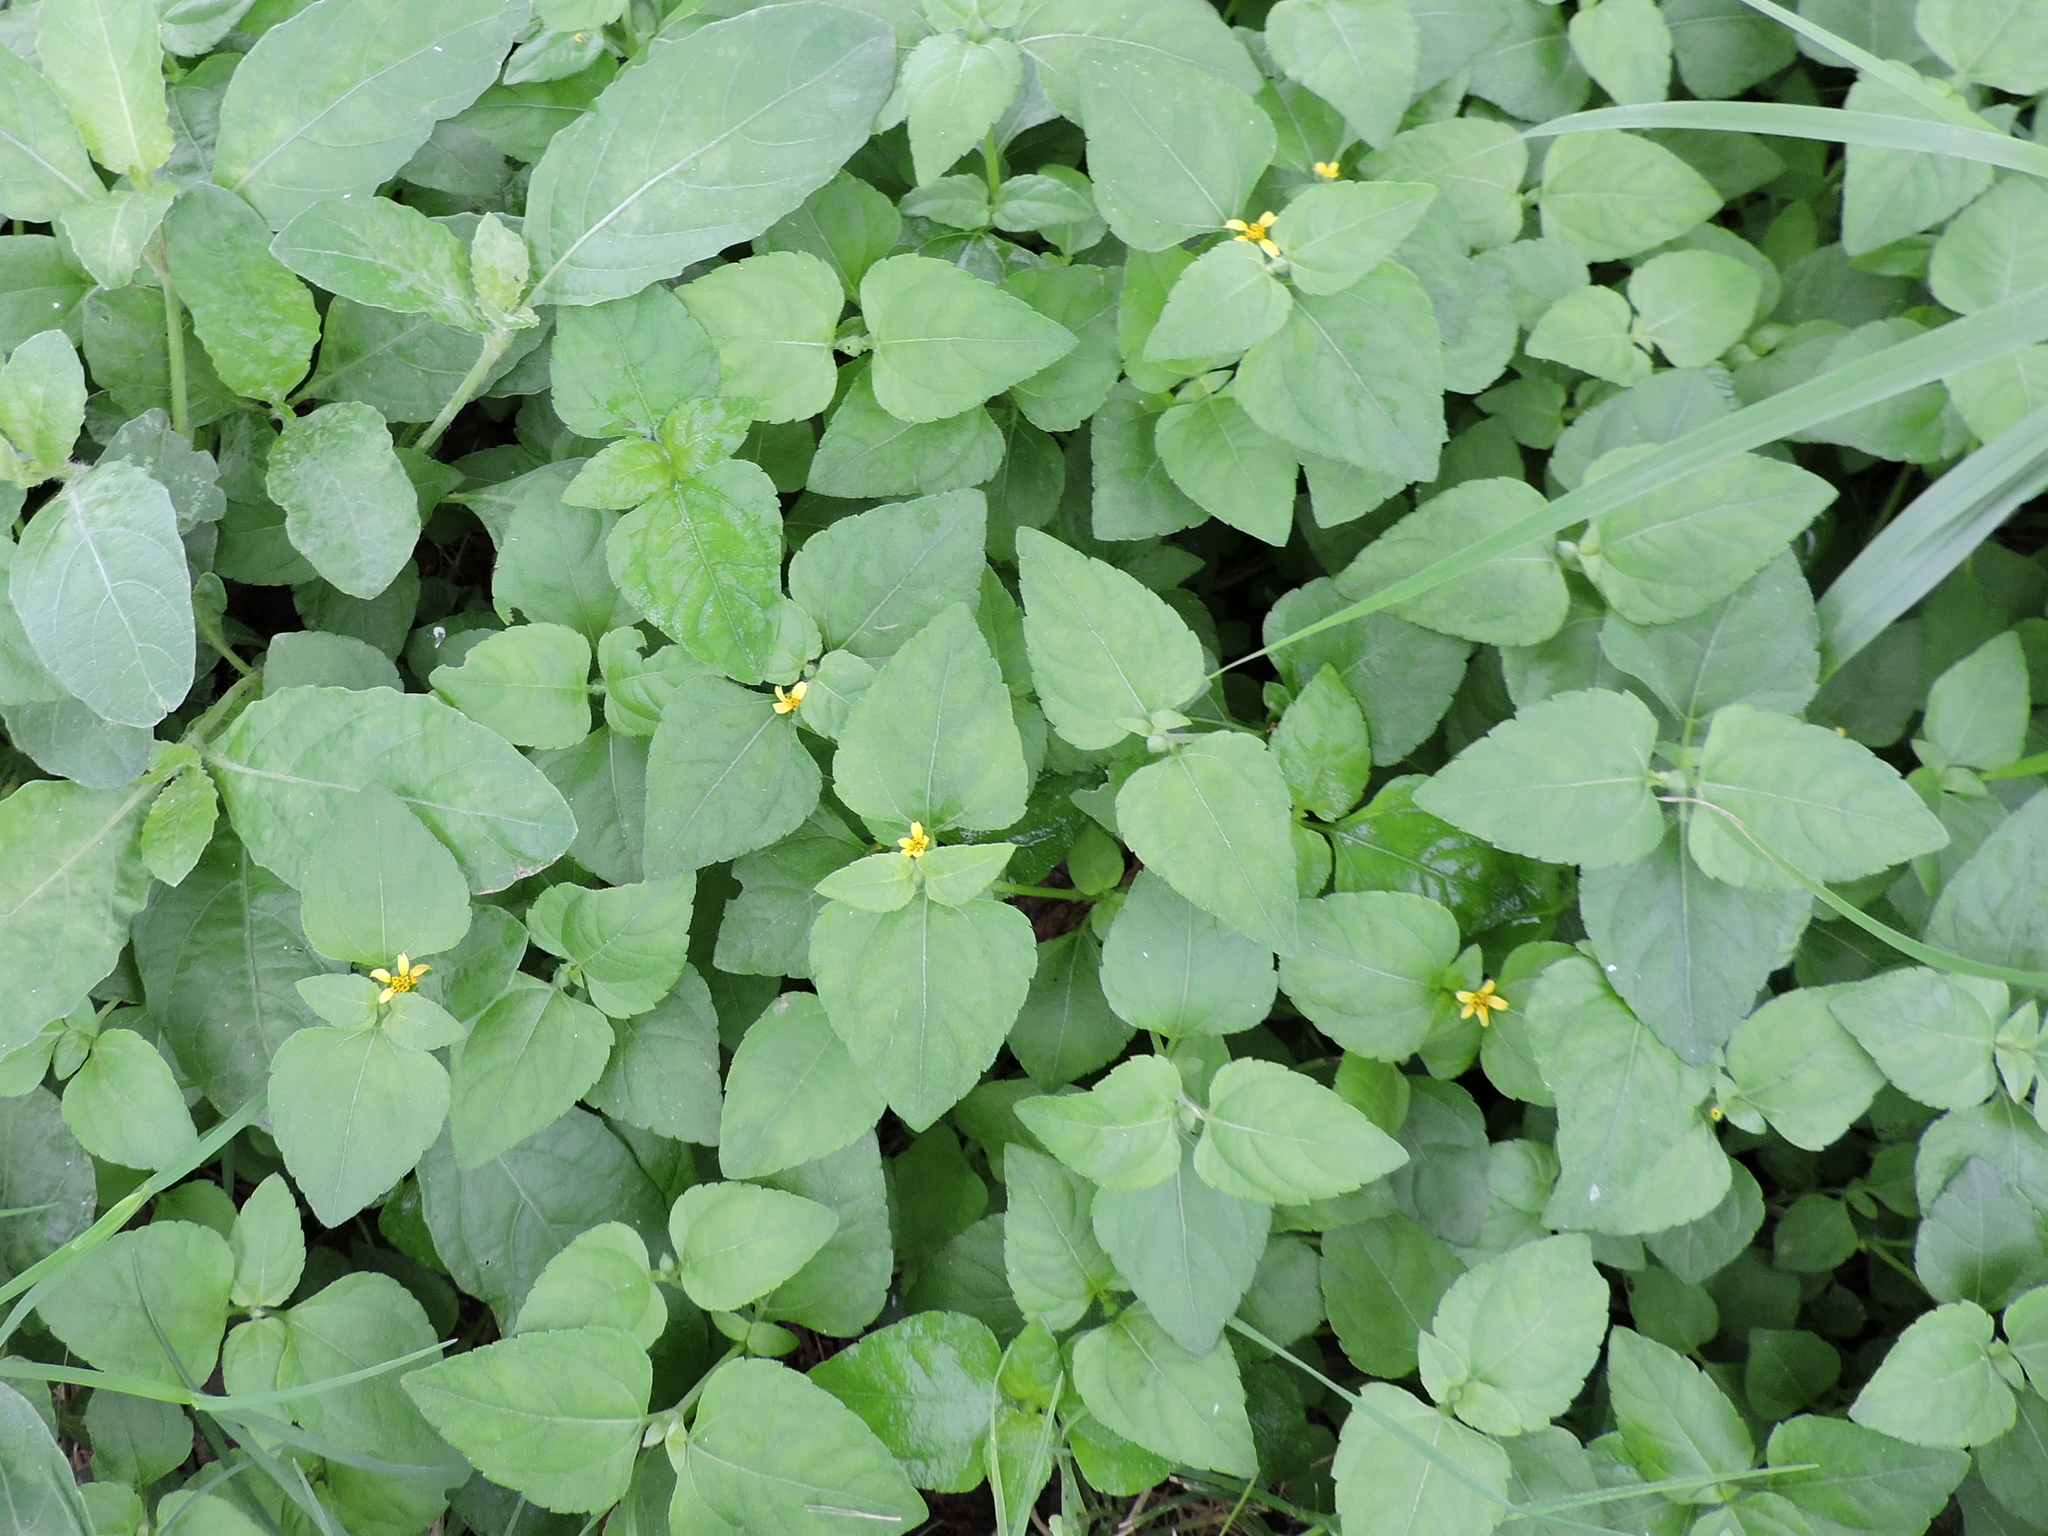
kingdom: Plantae
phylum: Tracheophyta
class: Magnoliopsida
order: Asterales
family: Asteraceae
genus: Calyptocarpus
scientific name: Calyptocarpus vialis
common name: Straggler daisy
